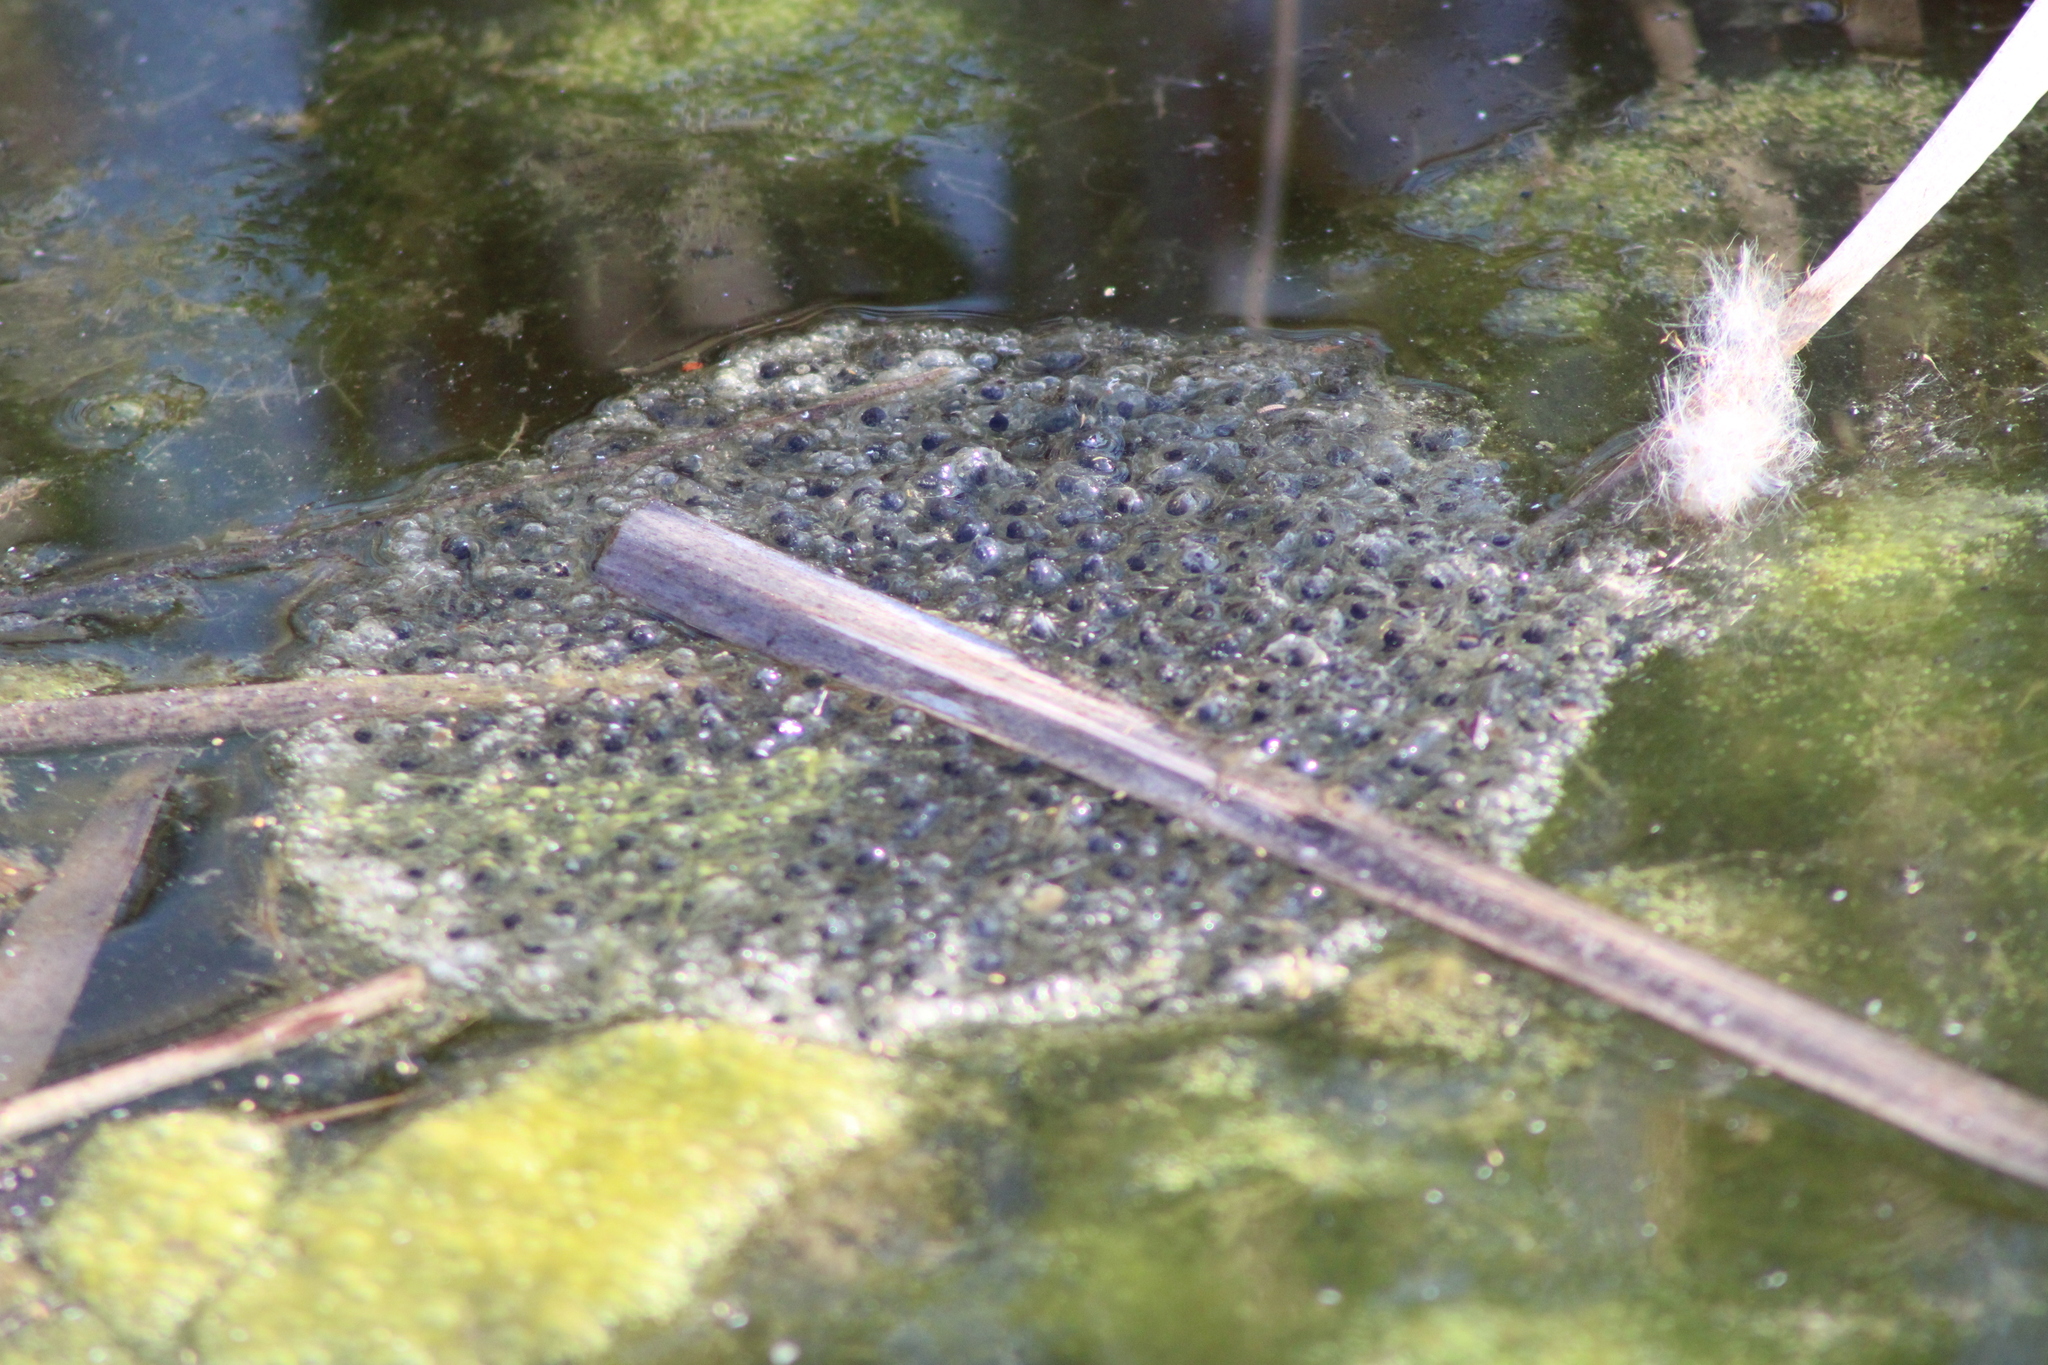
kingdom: Animalia
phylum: Chordata
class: Amphibia
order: Anura
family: Ranidae
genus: Rana
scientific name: Rana dalmatina
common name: Agile frog
